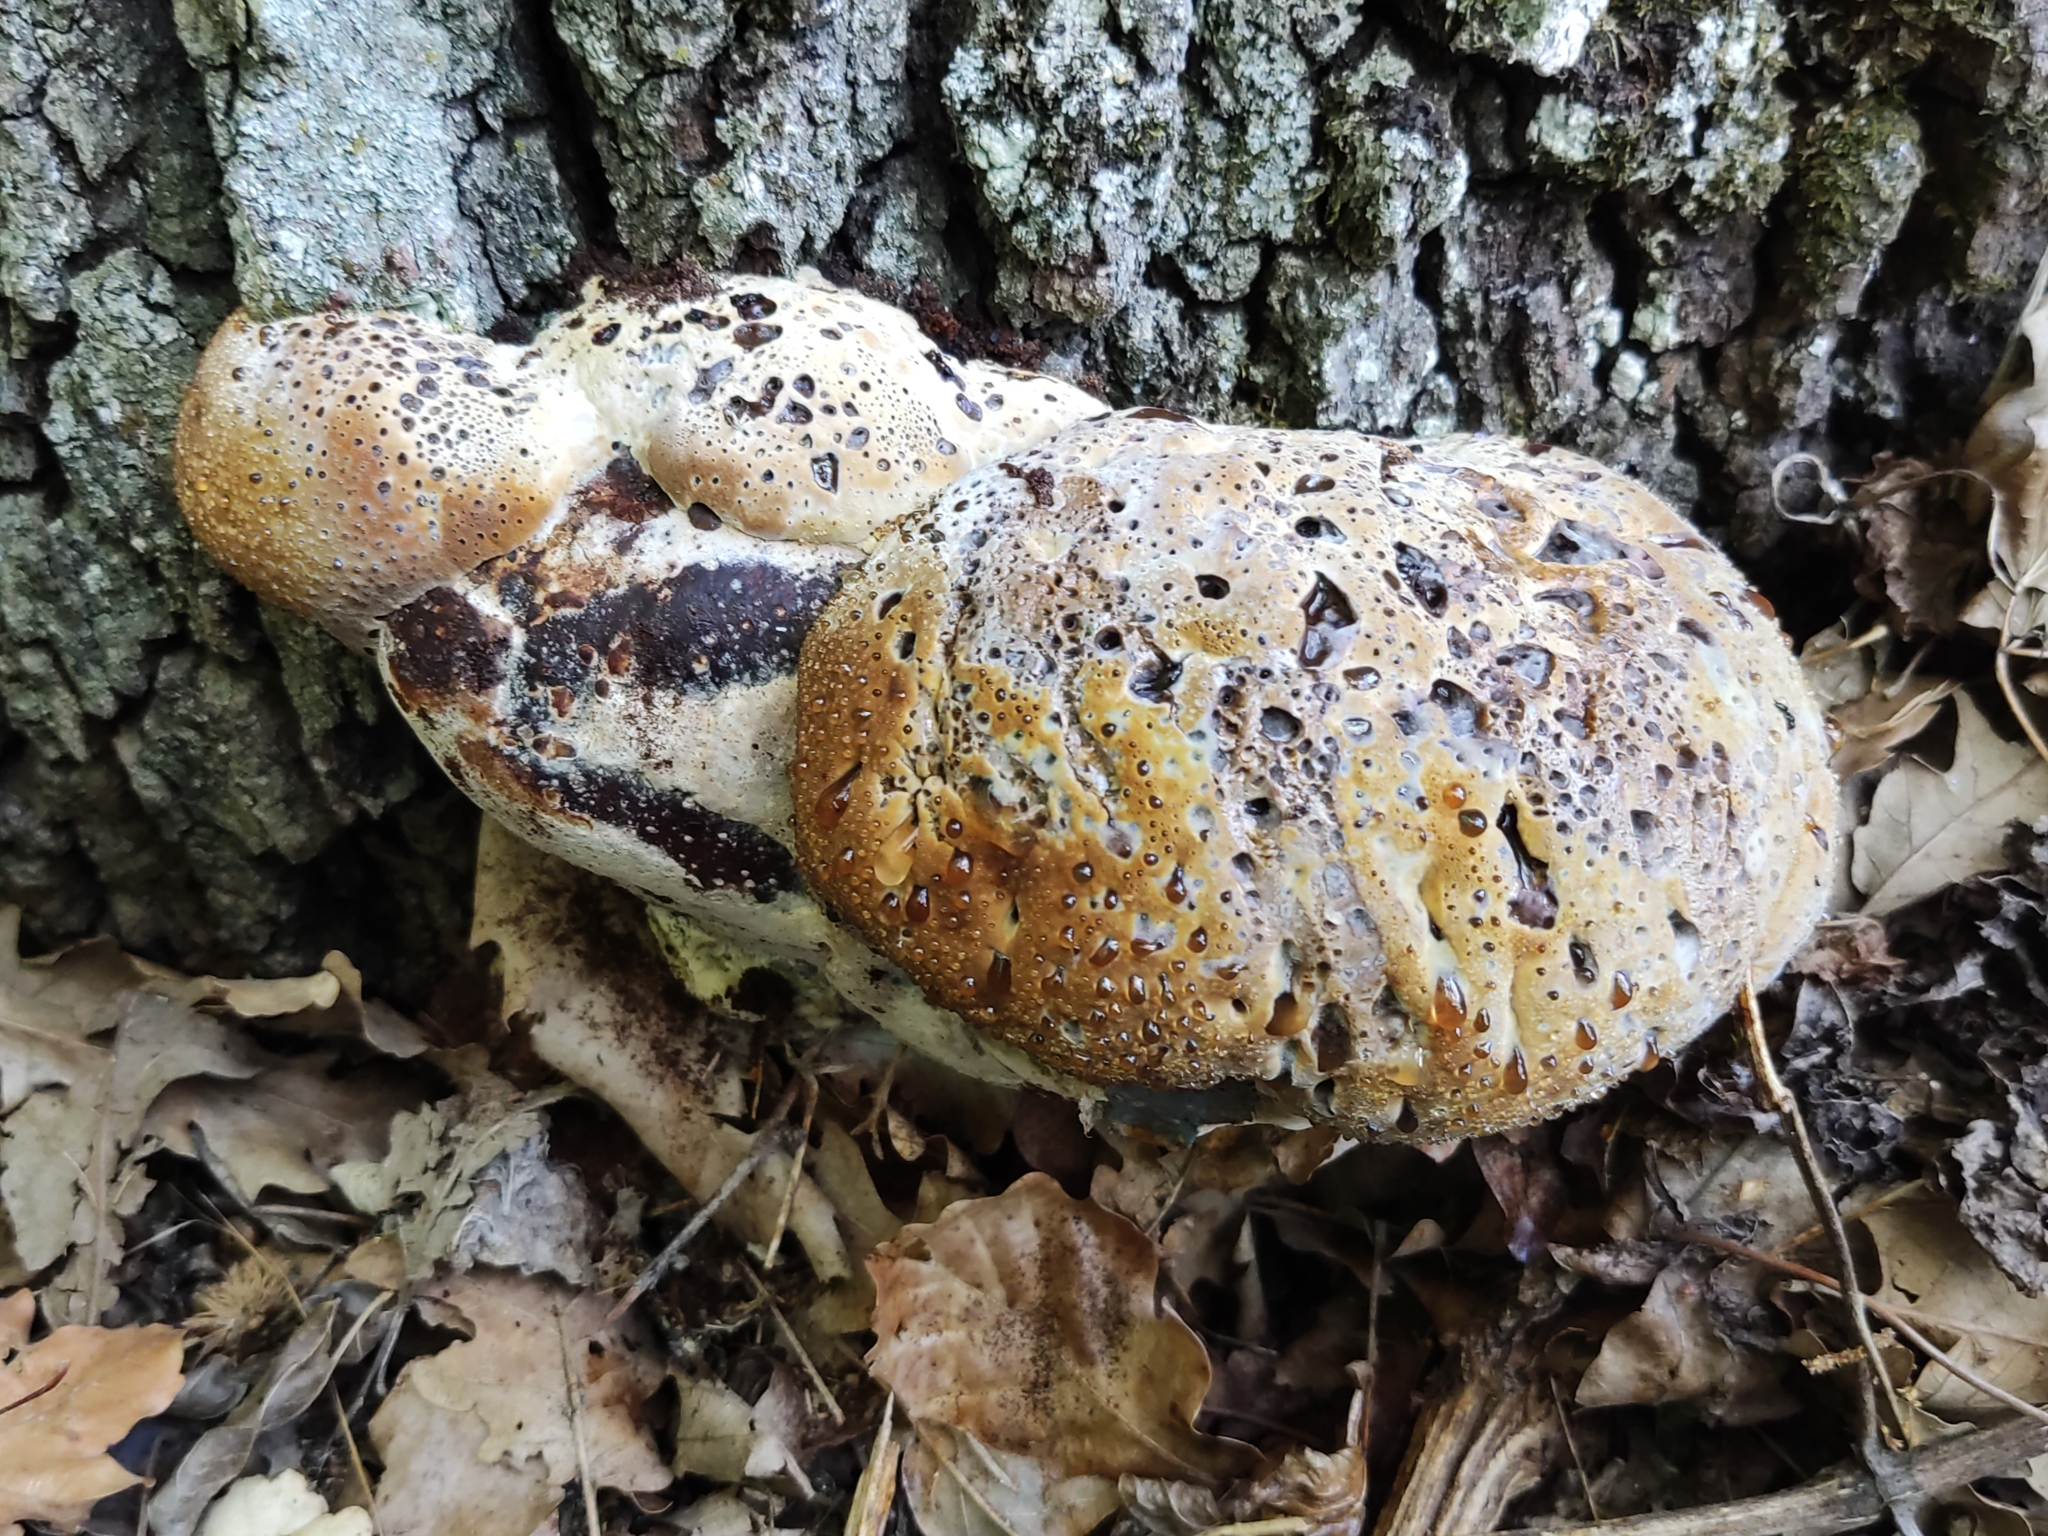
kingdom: Fungi
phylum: Basidiomycota
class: Agaricomycetes
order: Hymenochaetales
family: Hymenochaetaceae
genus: Pseudoinonotus
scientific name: Pseudoinonotus dryadeus
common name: Oak bracket
